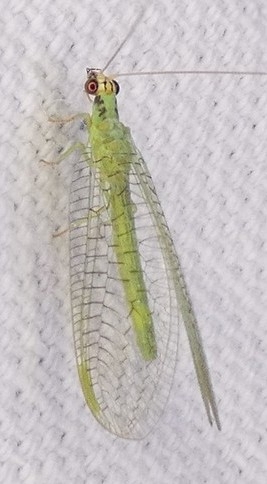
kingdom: Animalia
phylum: Arthropoda
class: Insecta
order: Neuroptera
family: Chrysopidae
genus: Chrysopa
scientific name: Chrysopa incompleta
